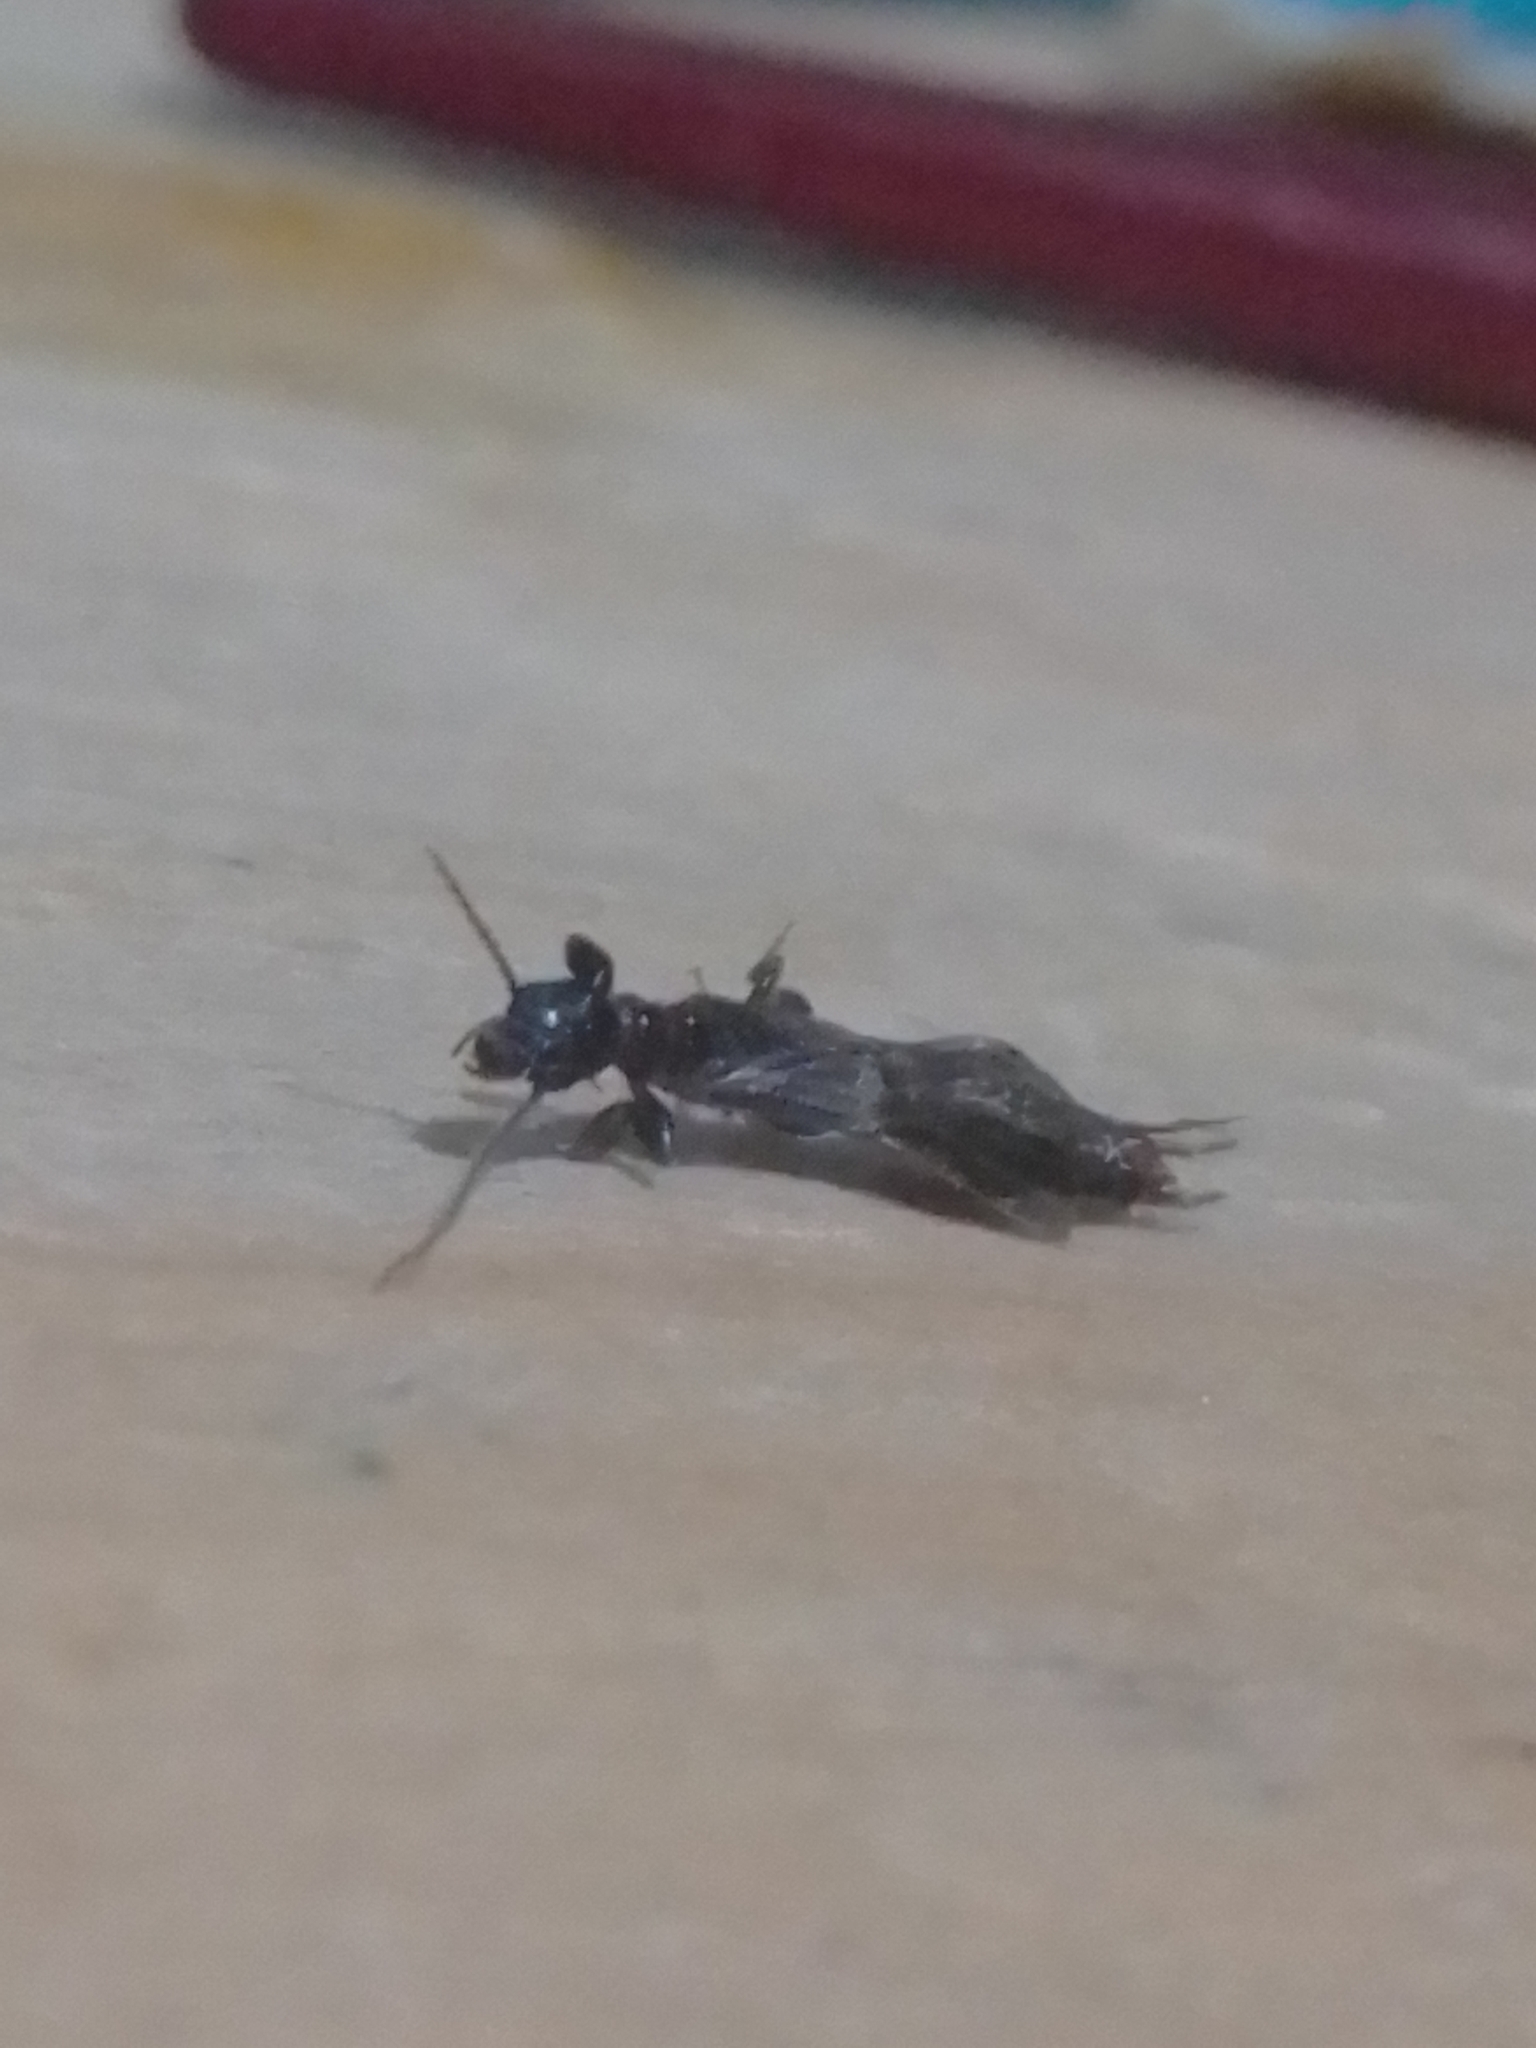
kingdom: Animalia
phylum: Arthropoda
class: Insecta
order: Embioptera
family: Oligotomidae
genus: Oligotoma
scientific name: Oligotoma nigra
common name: Black webspinner
